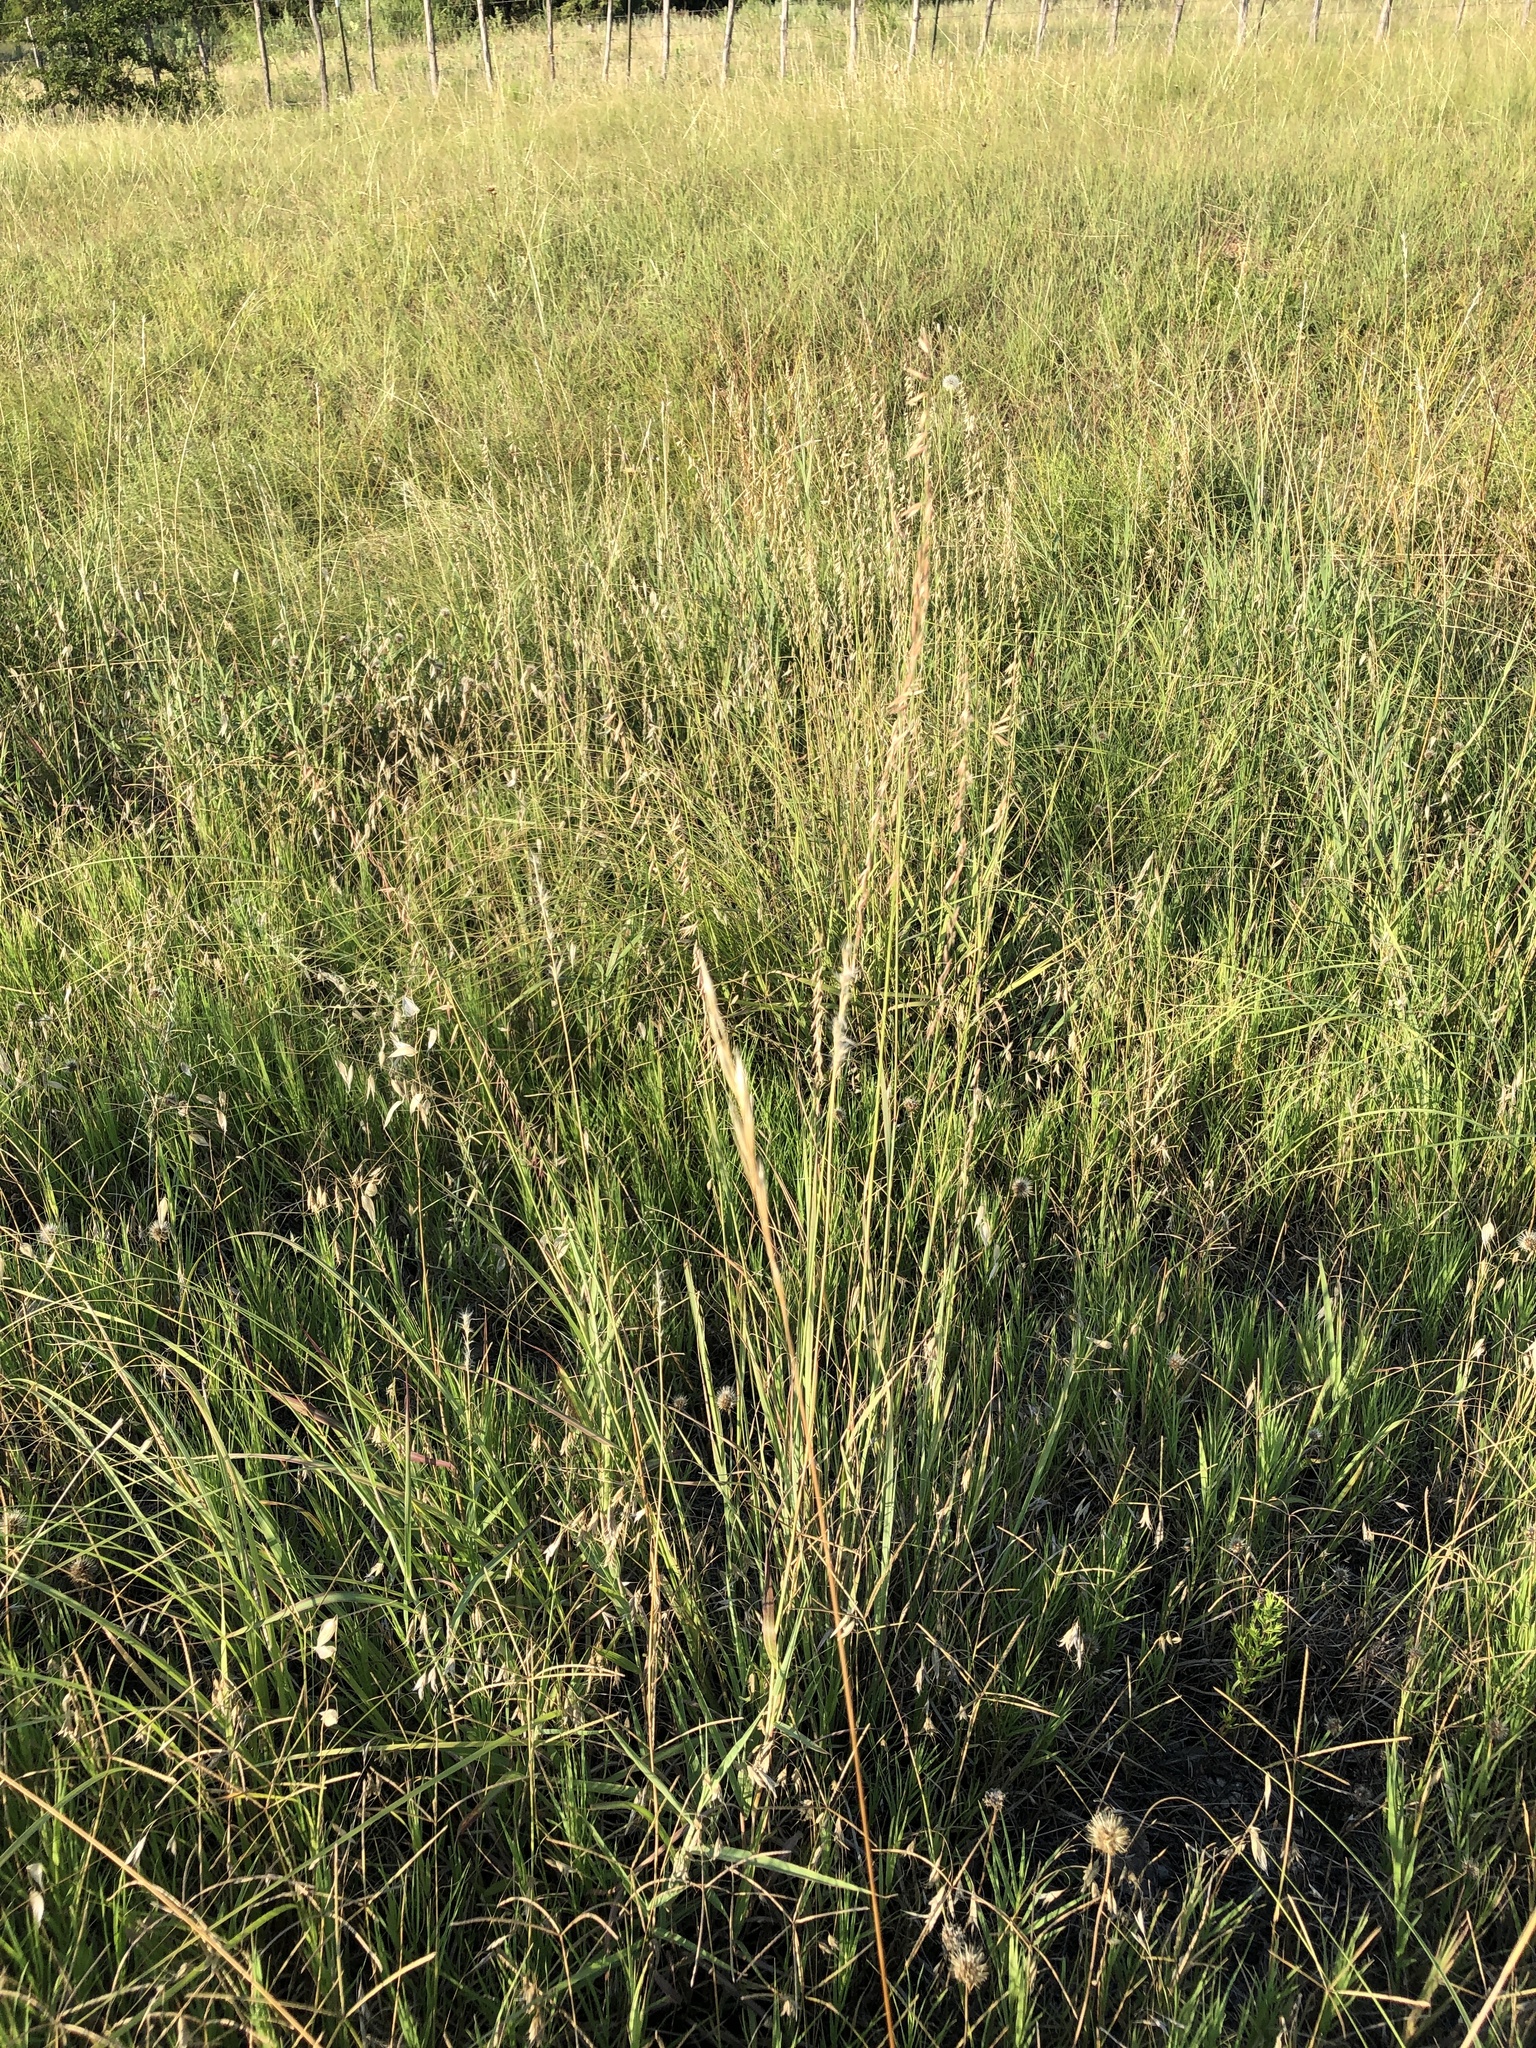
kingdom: Plantae
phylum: Tracheophyta
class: Liliopsida
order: Poales
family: Poaceae
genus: Bouteloua
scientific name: Bouteloua curtipendula
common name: Side-oats grama
